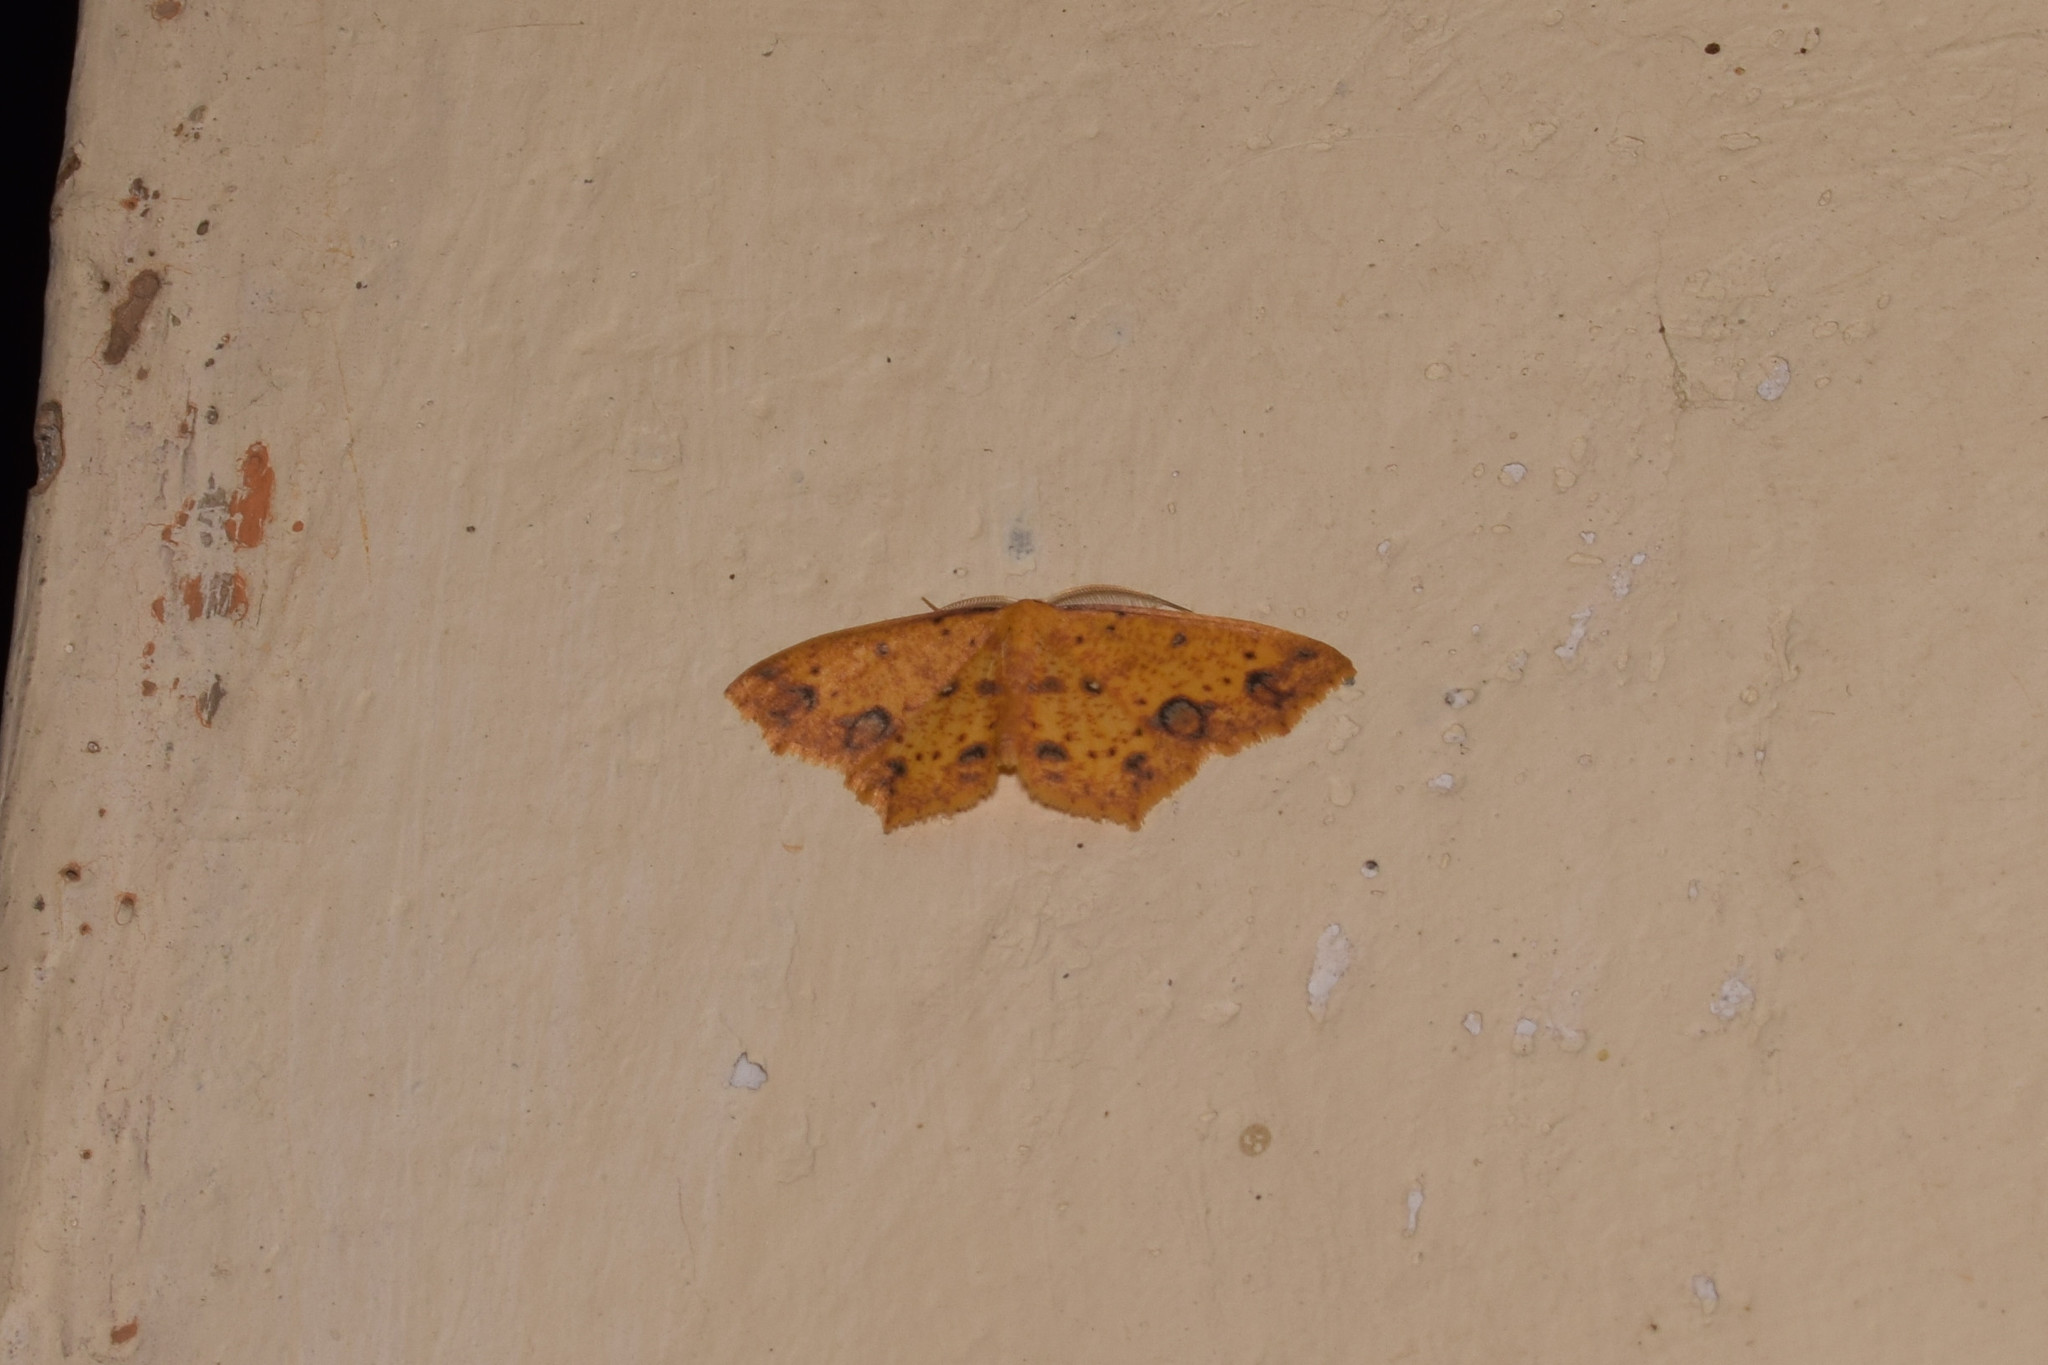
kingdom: Animalia
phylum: Arthropoda
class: Insecta
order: Lepidoptera
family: Geometridae
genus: Synegiodes
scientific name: Synegiodes histrionaria
